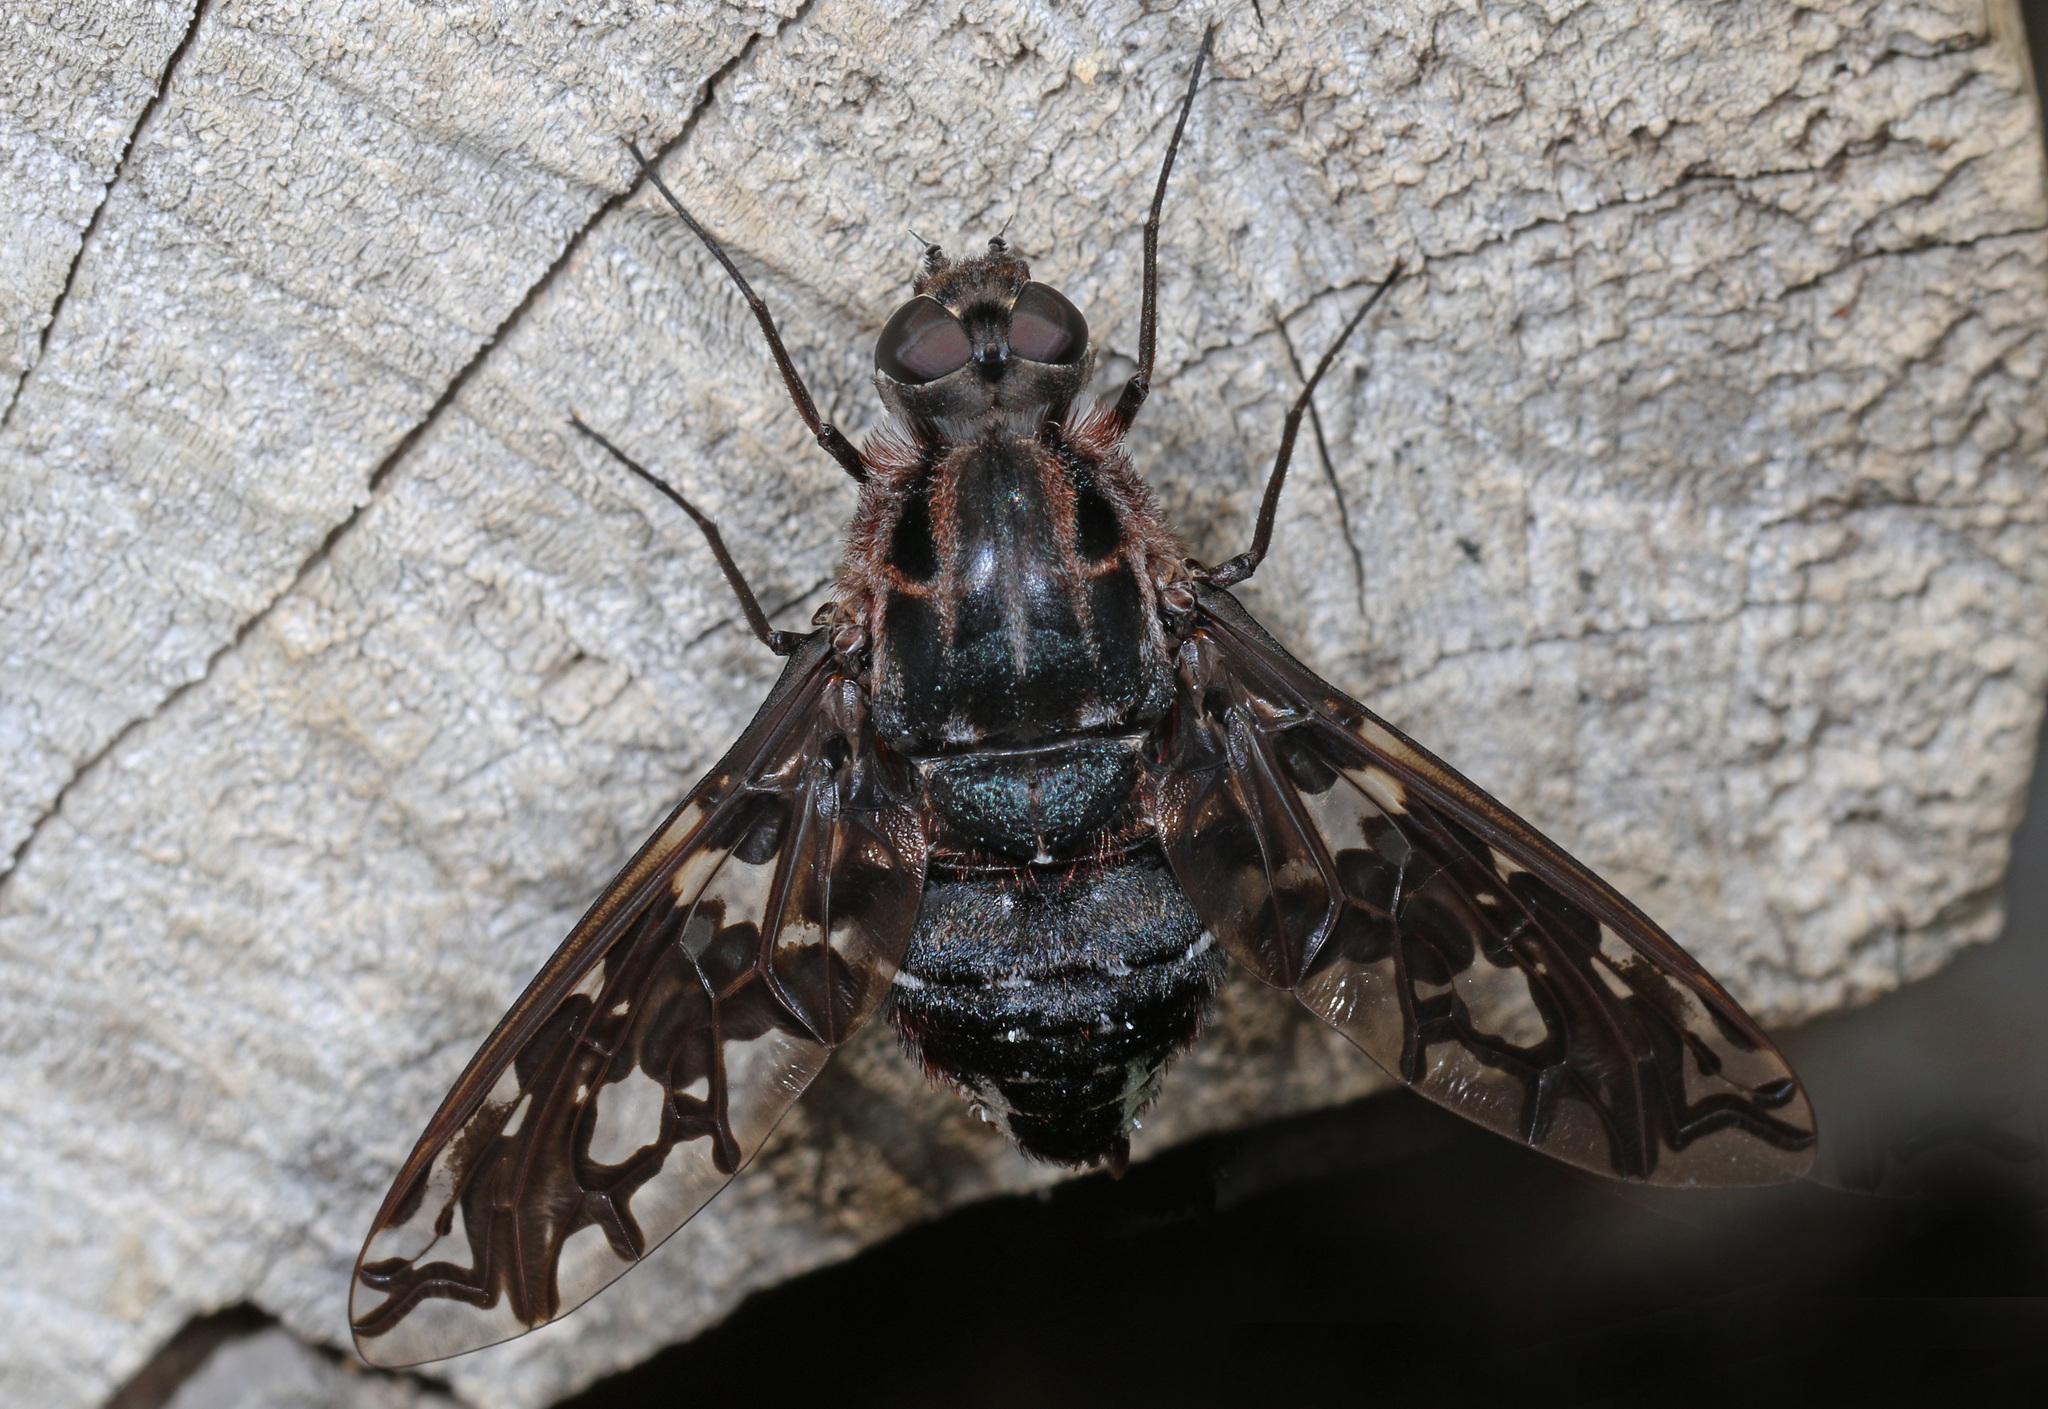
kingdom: Animalia
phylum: Arthropoda
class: Insecta
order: Diptera
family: Bombyliidae
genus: Xenox
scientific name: Xenox tigrinus
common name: Tiger bee fly
